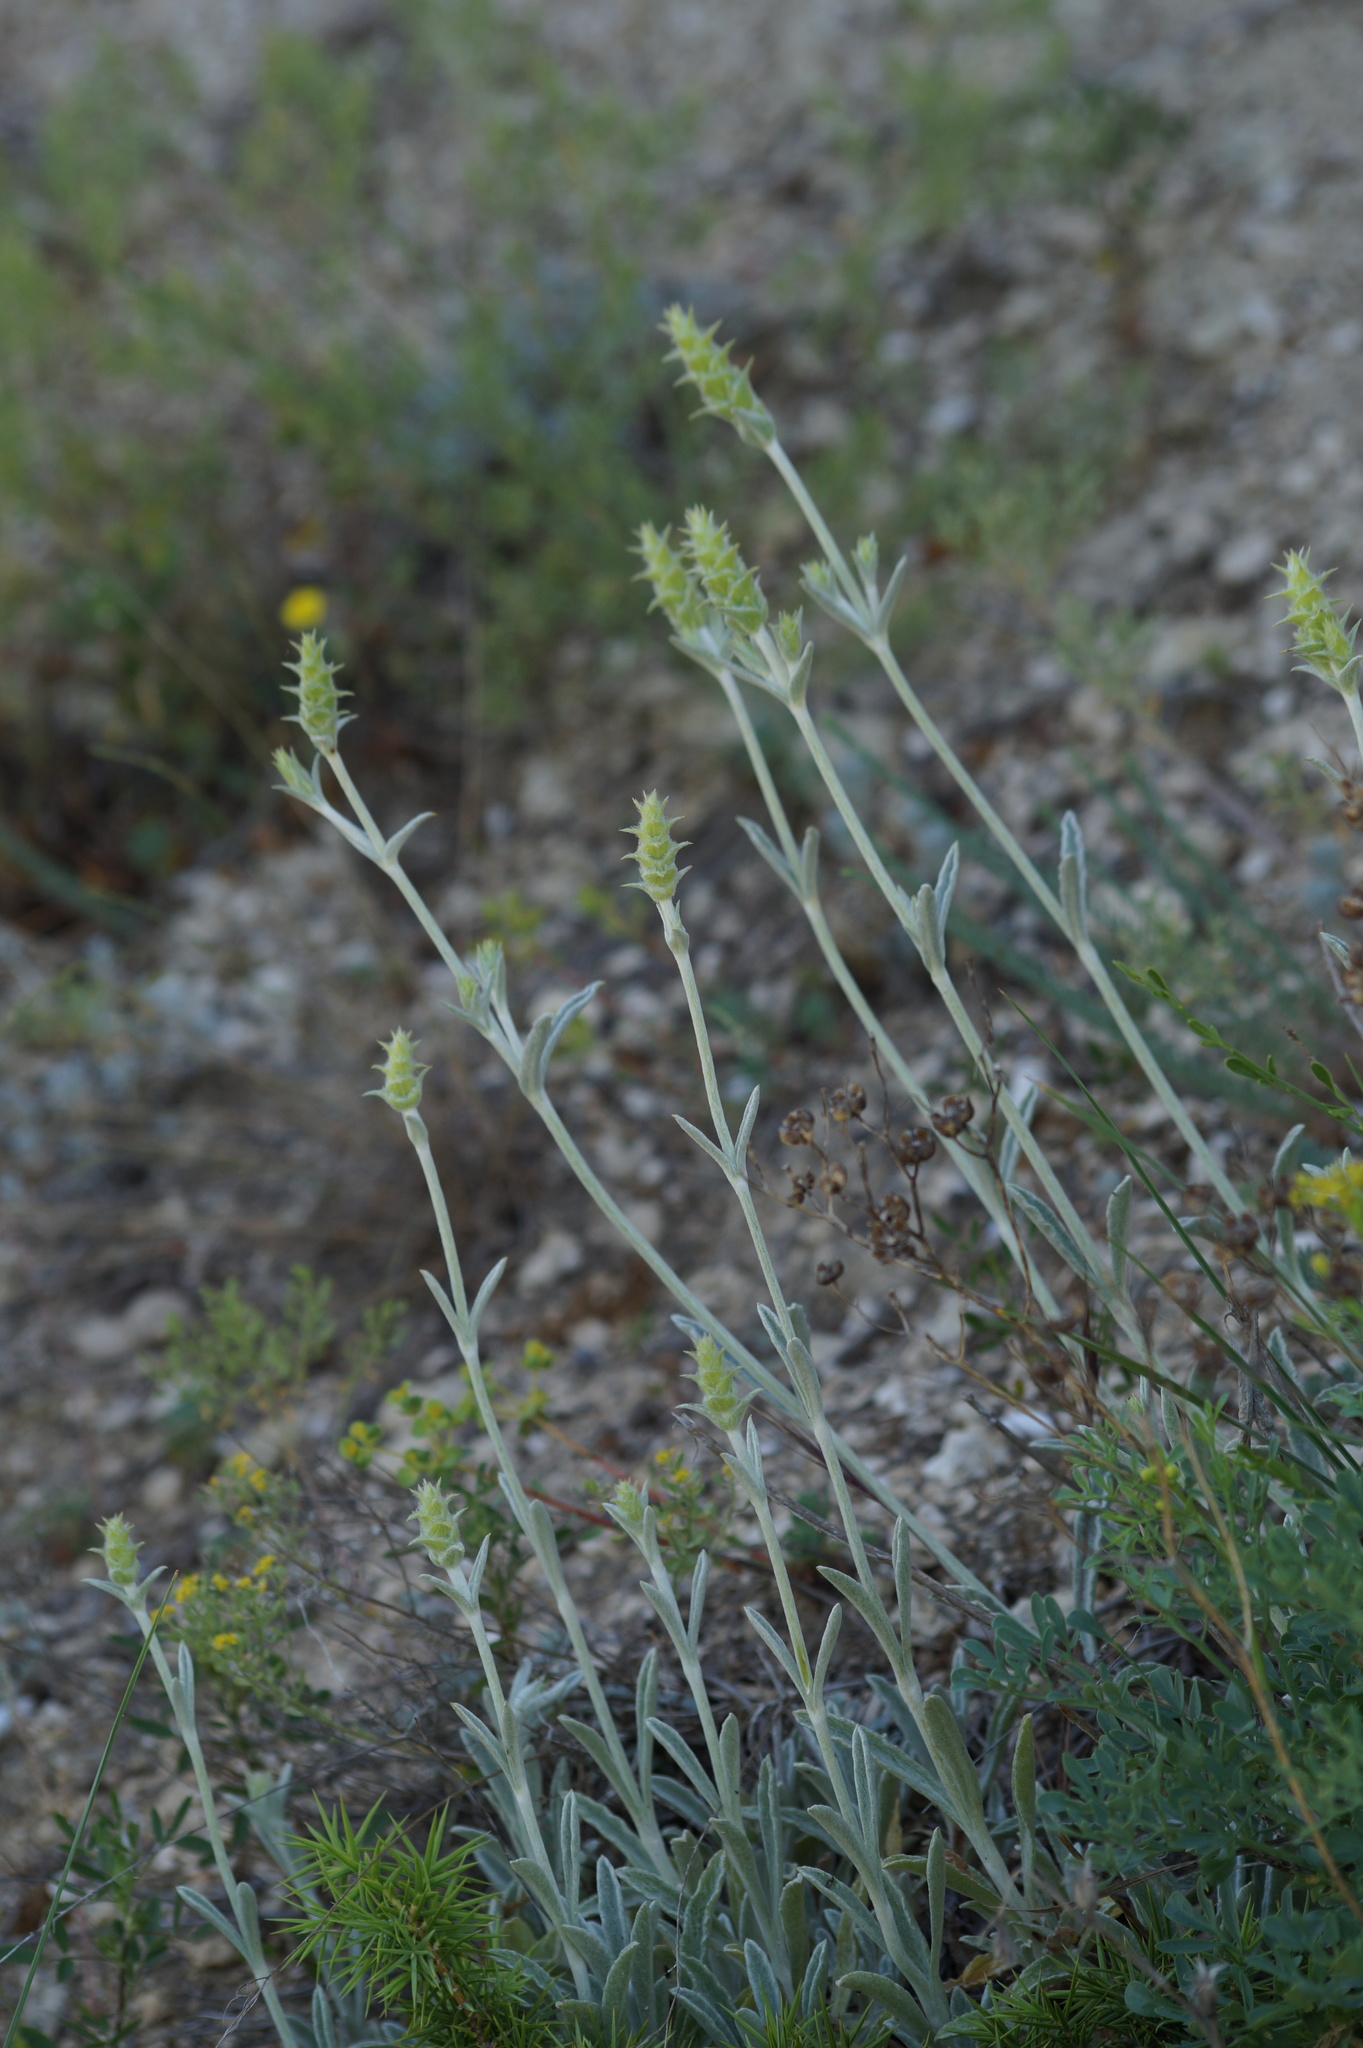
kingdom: Plantae
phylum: Tracheophyta
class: Magnoliopsida
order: Lamiales
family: Lamiaceae
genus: Sideritis
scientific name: Sideritis taurica
